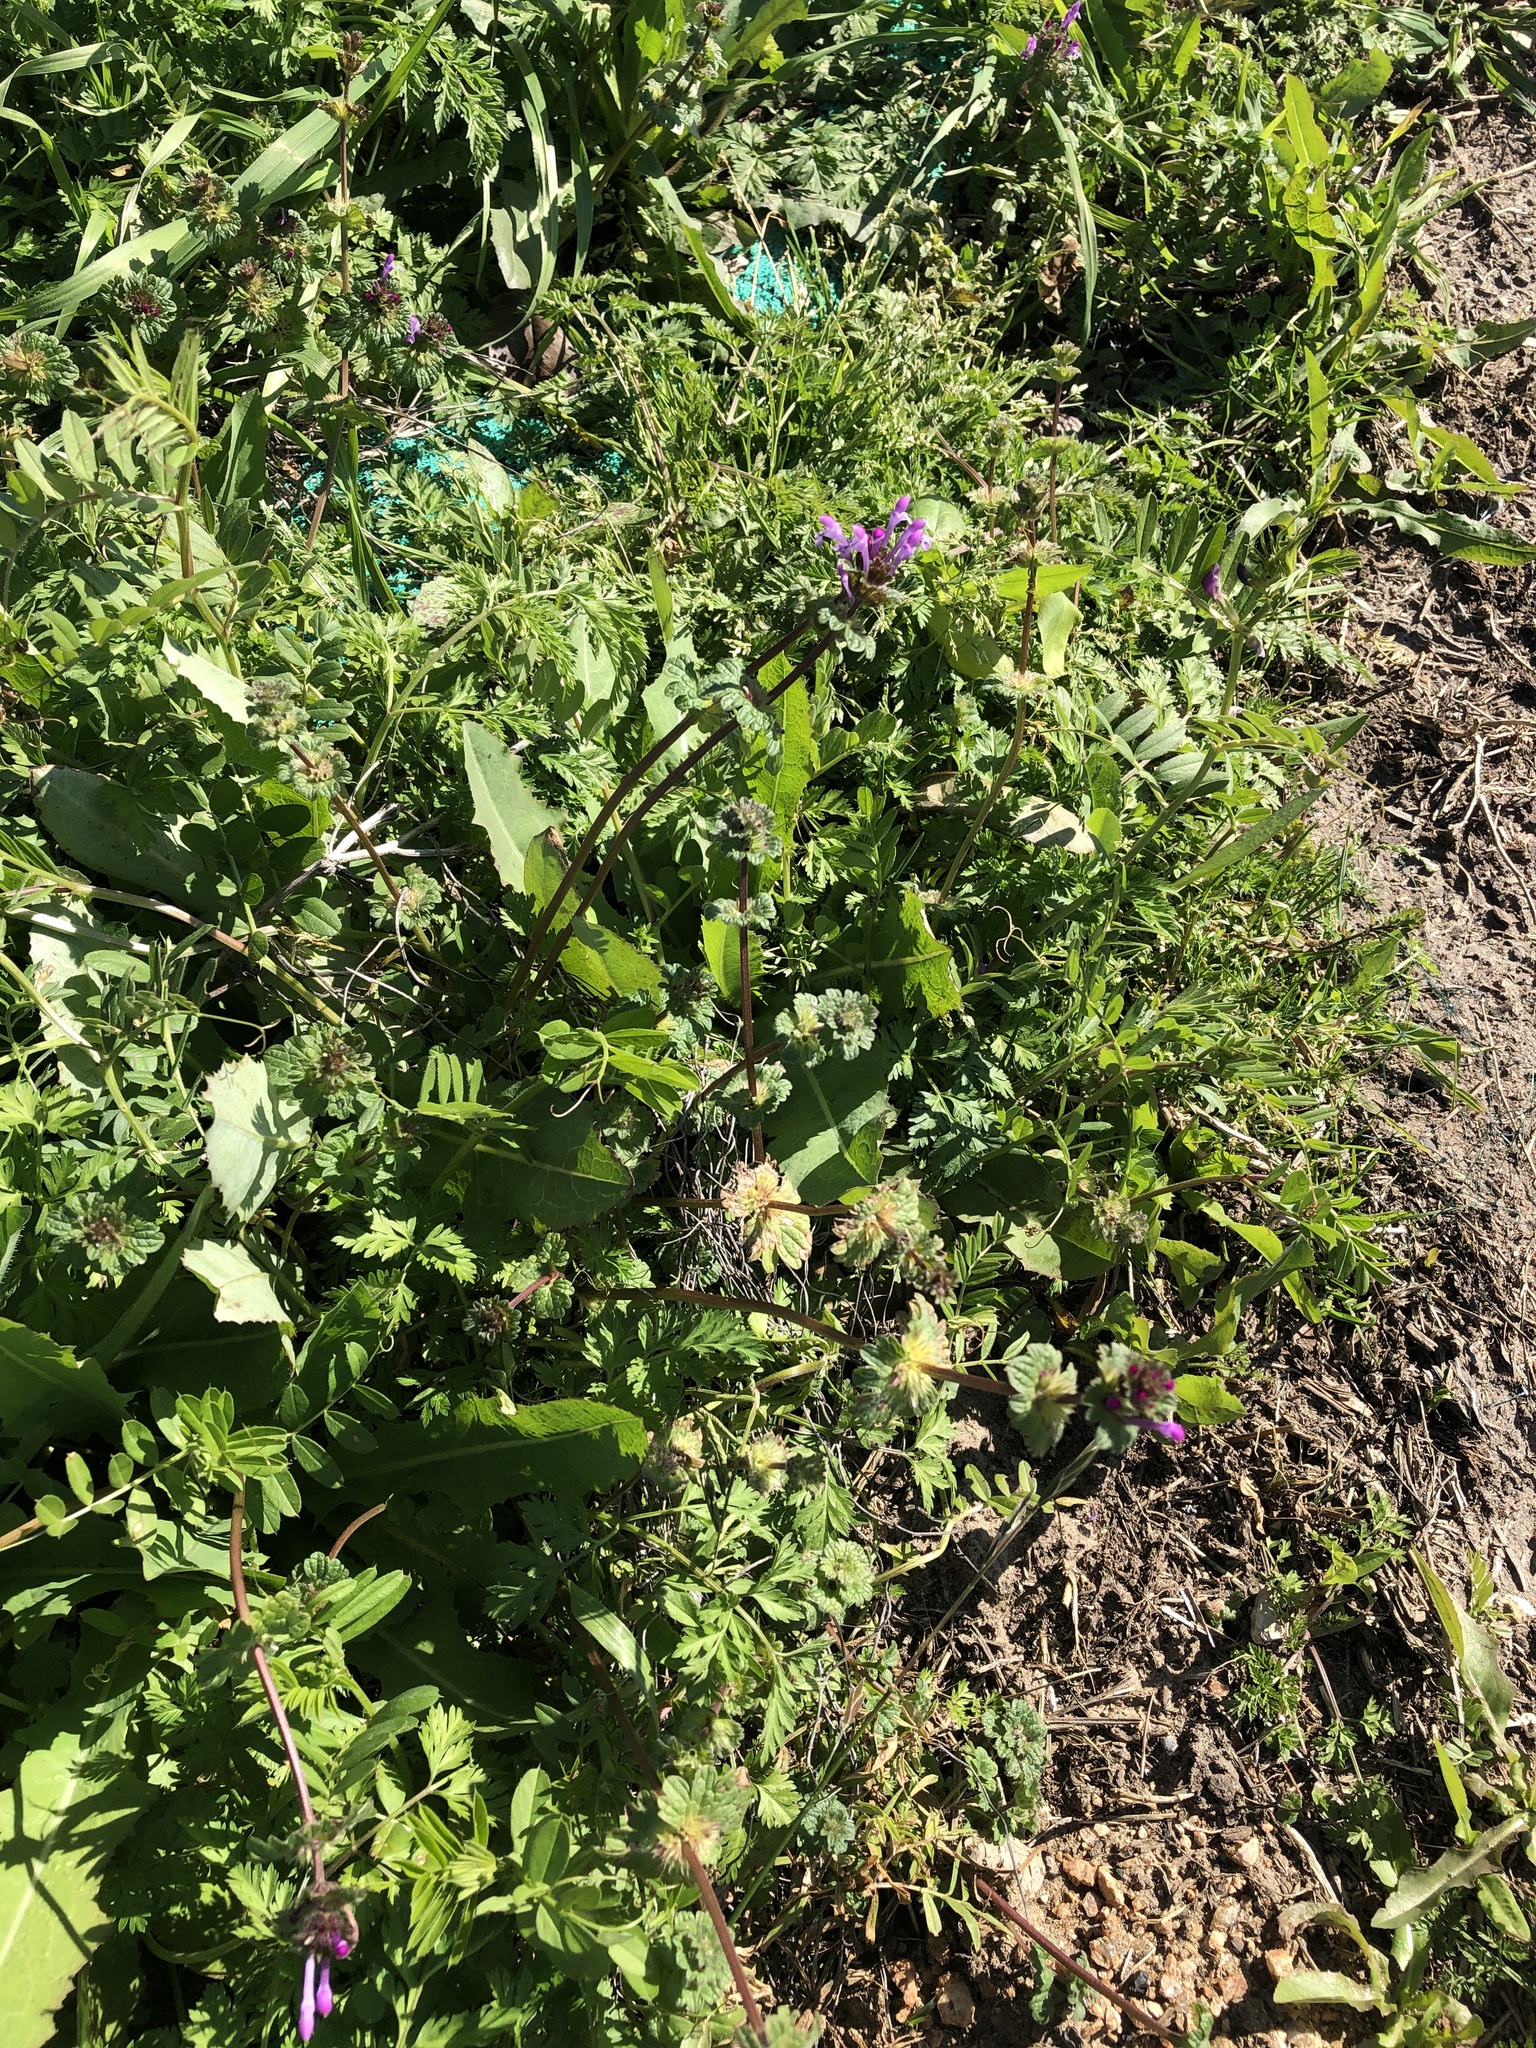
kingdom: Plantae
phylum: Tracheophyta
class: Magnoliopsida
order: Lamiales
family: Lamiaceae
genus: Lamium
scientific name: Lamium amplexicaule
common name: Henbit dead-nettle
